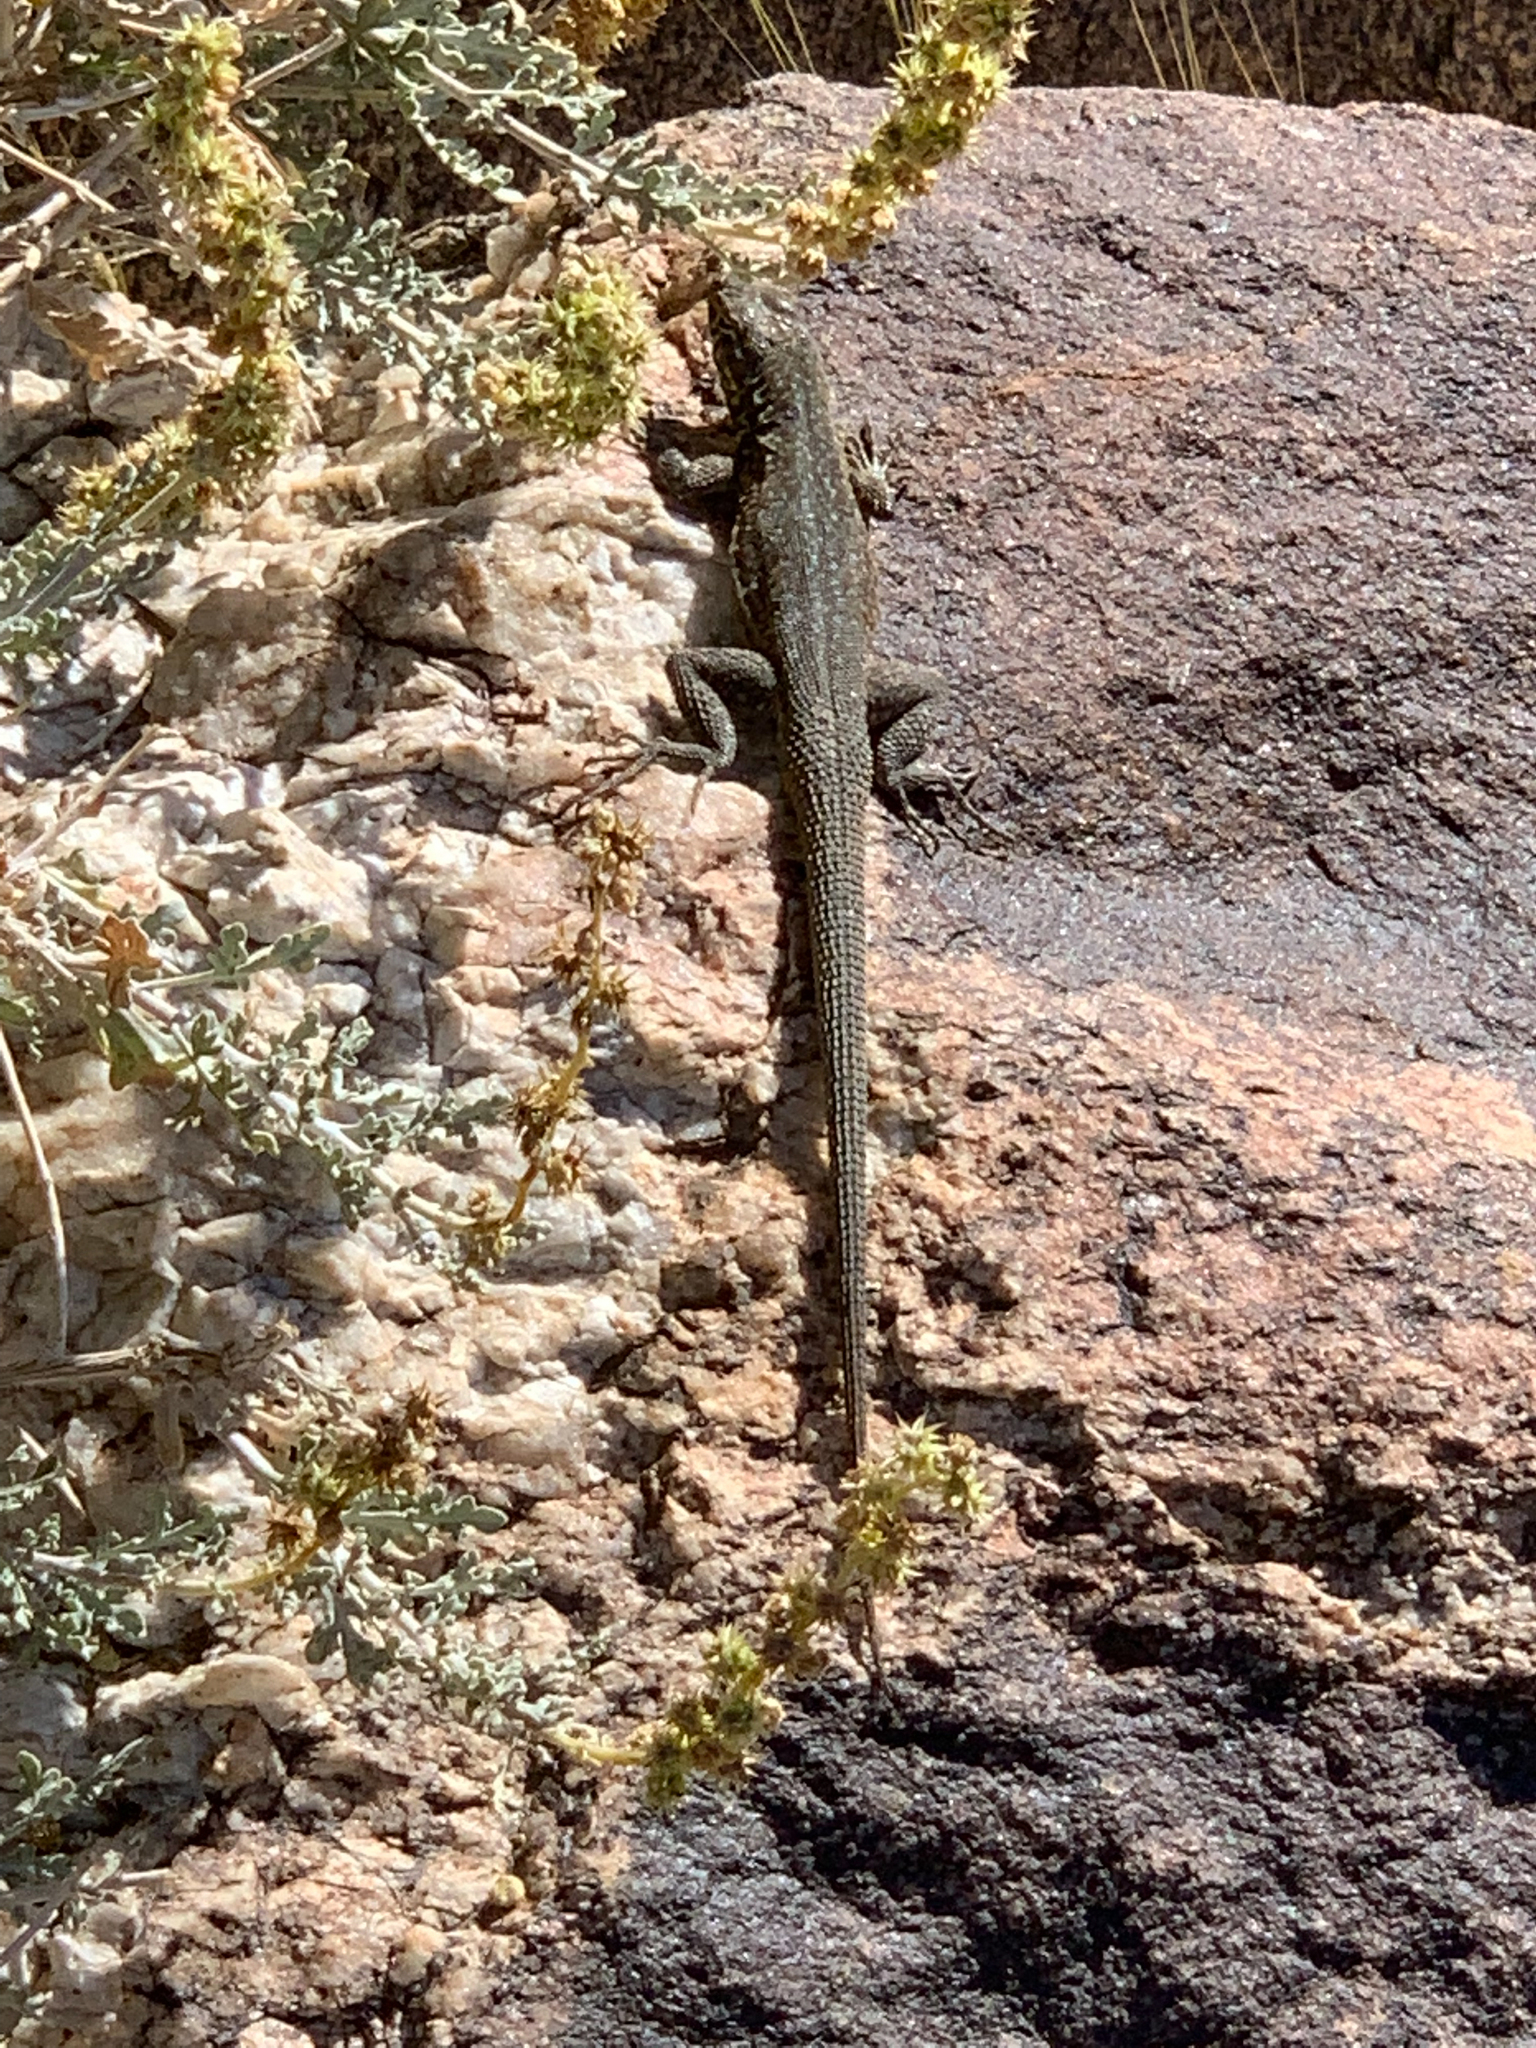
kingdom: Animalia
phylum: Chordata
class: Squamata
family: Phrynosomatidae
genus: Uta
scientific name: Uta stansburiana
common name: Side-blotched lizard
